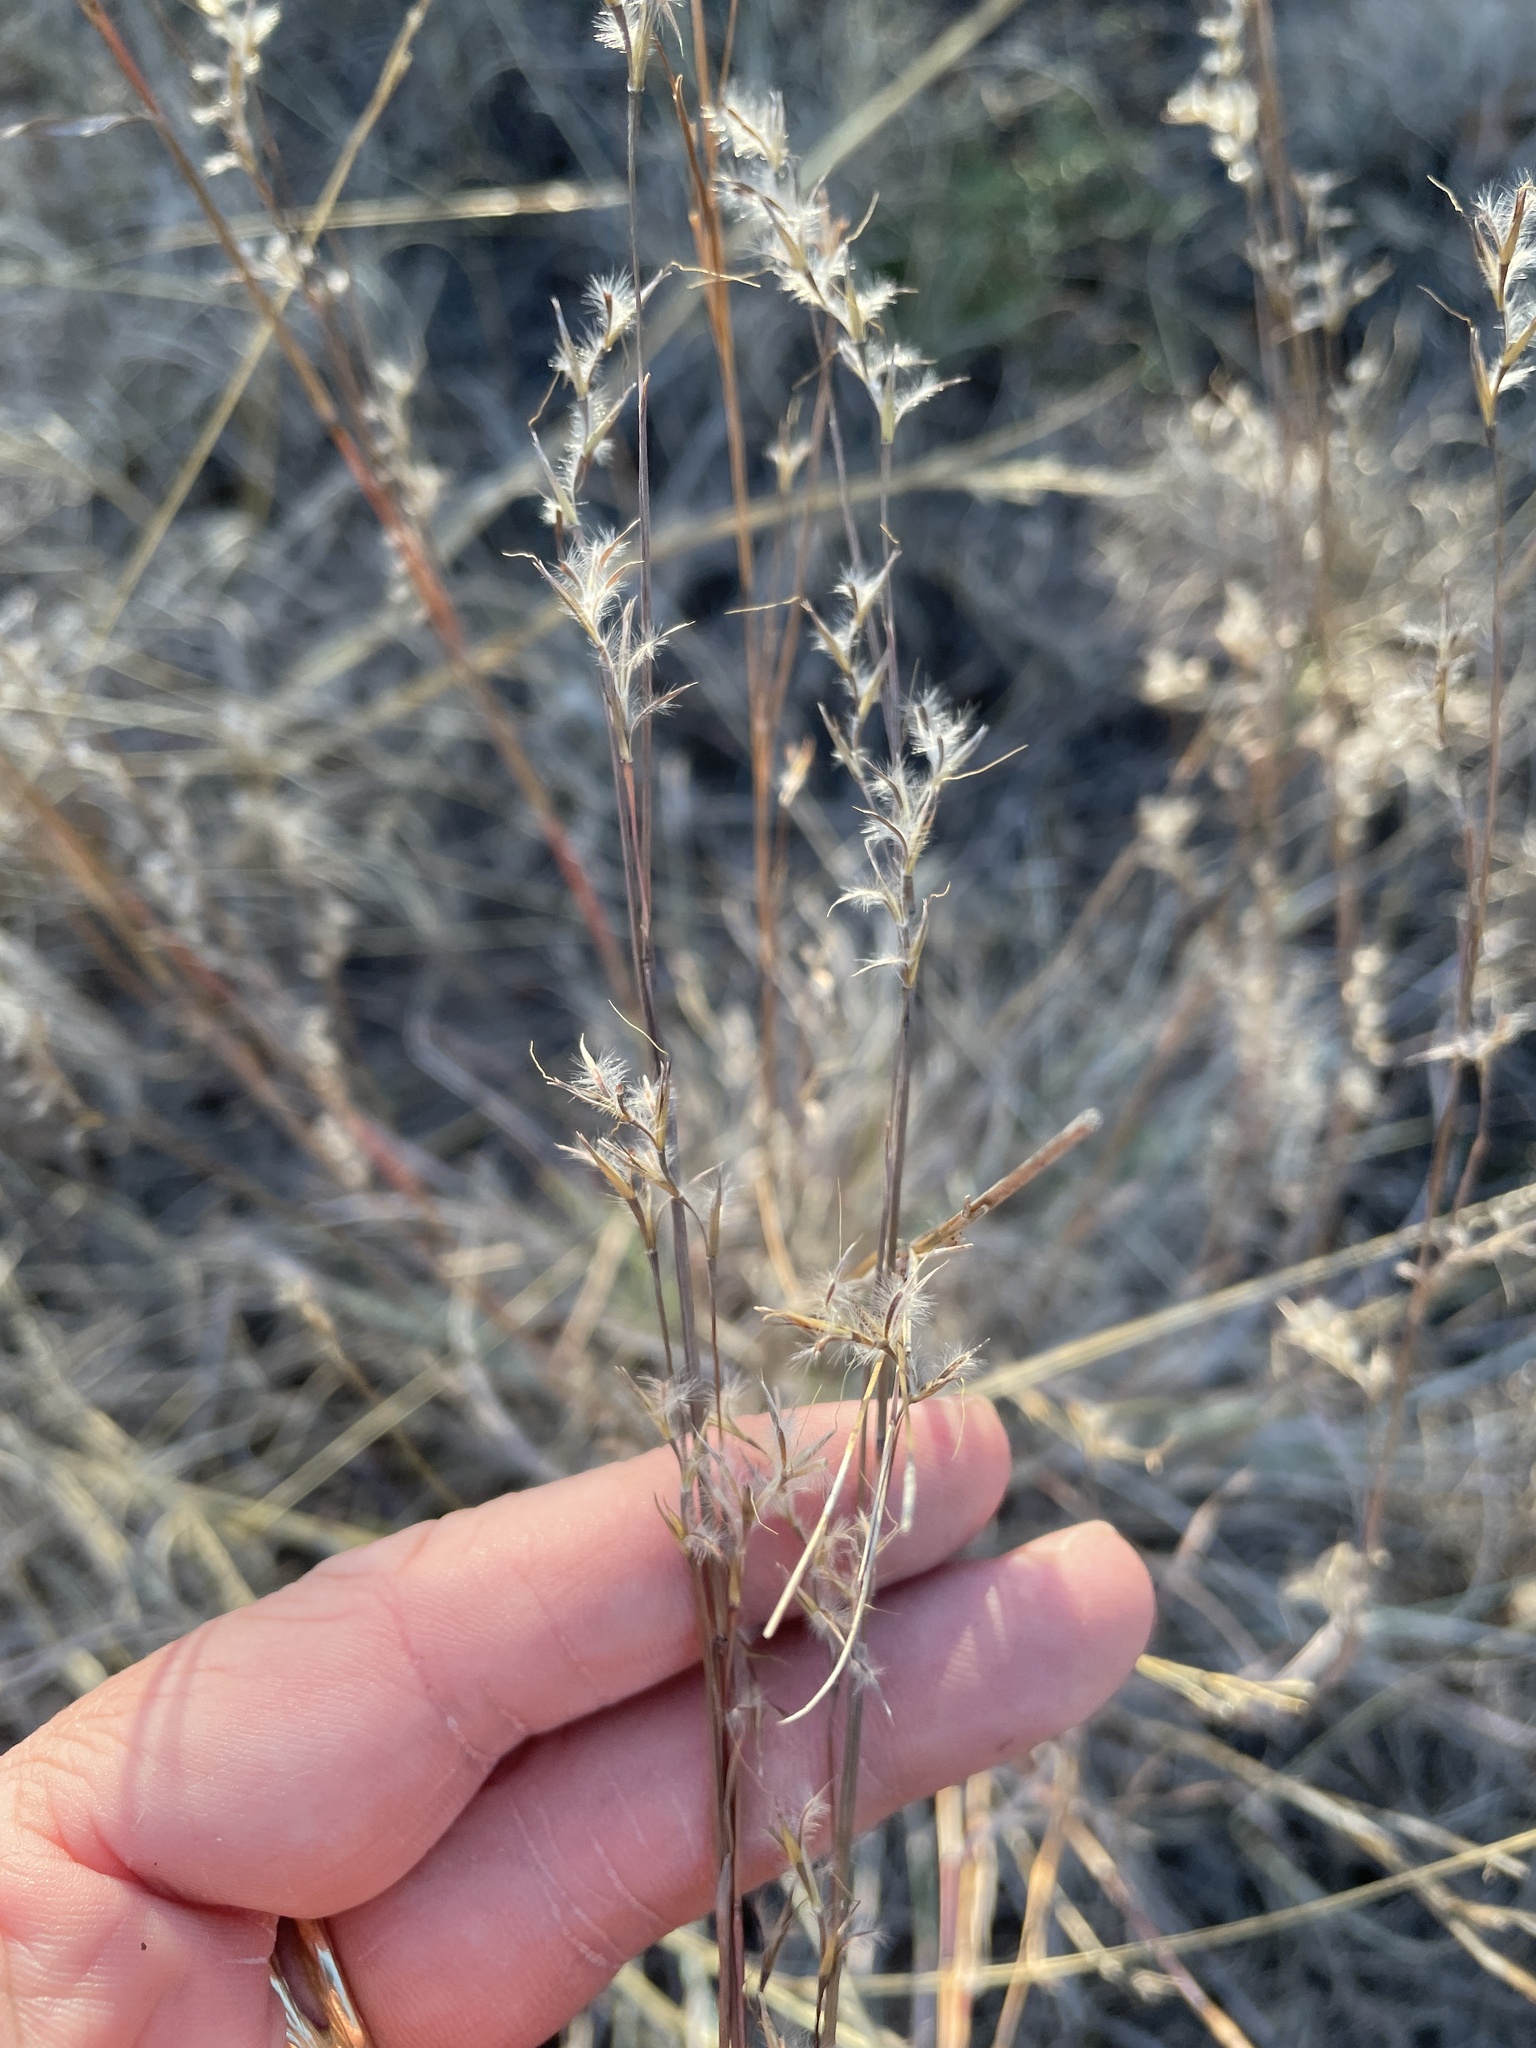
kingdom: Plantae
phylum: Tracheophyta
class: Liliopsida
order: Poales
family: Poaceae
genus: Schizachyrium
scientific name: Schizachyrium scoparium
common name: Little bluestem
